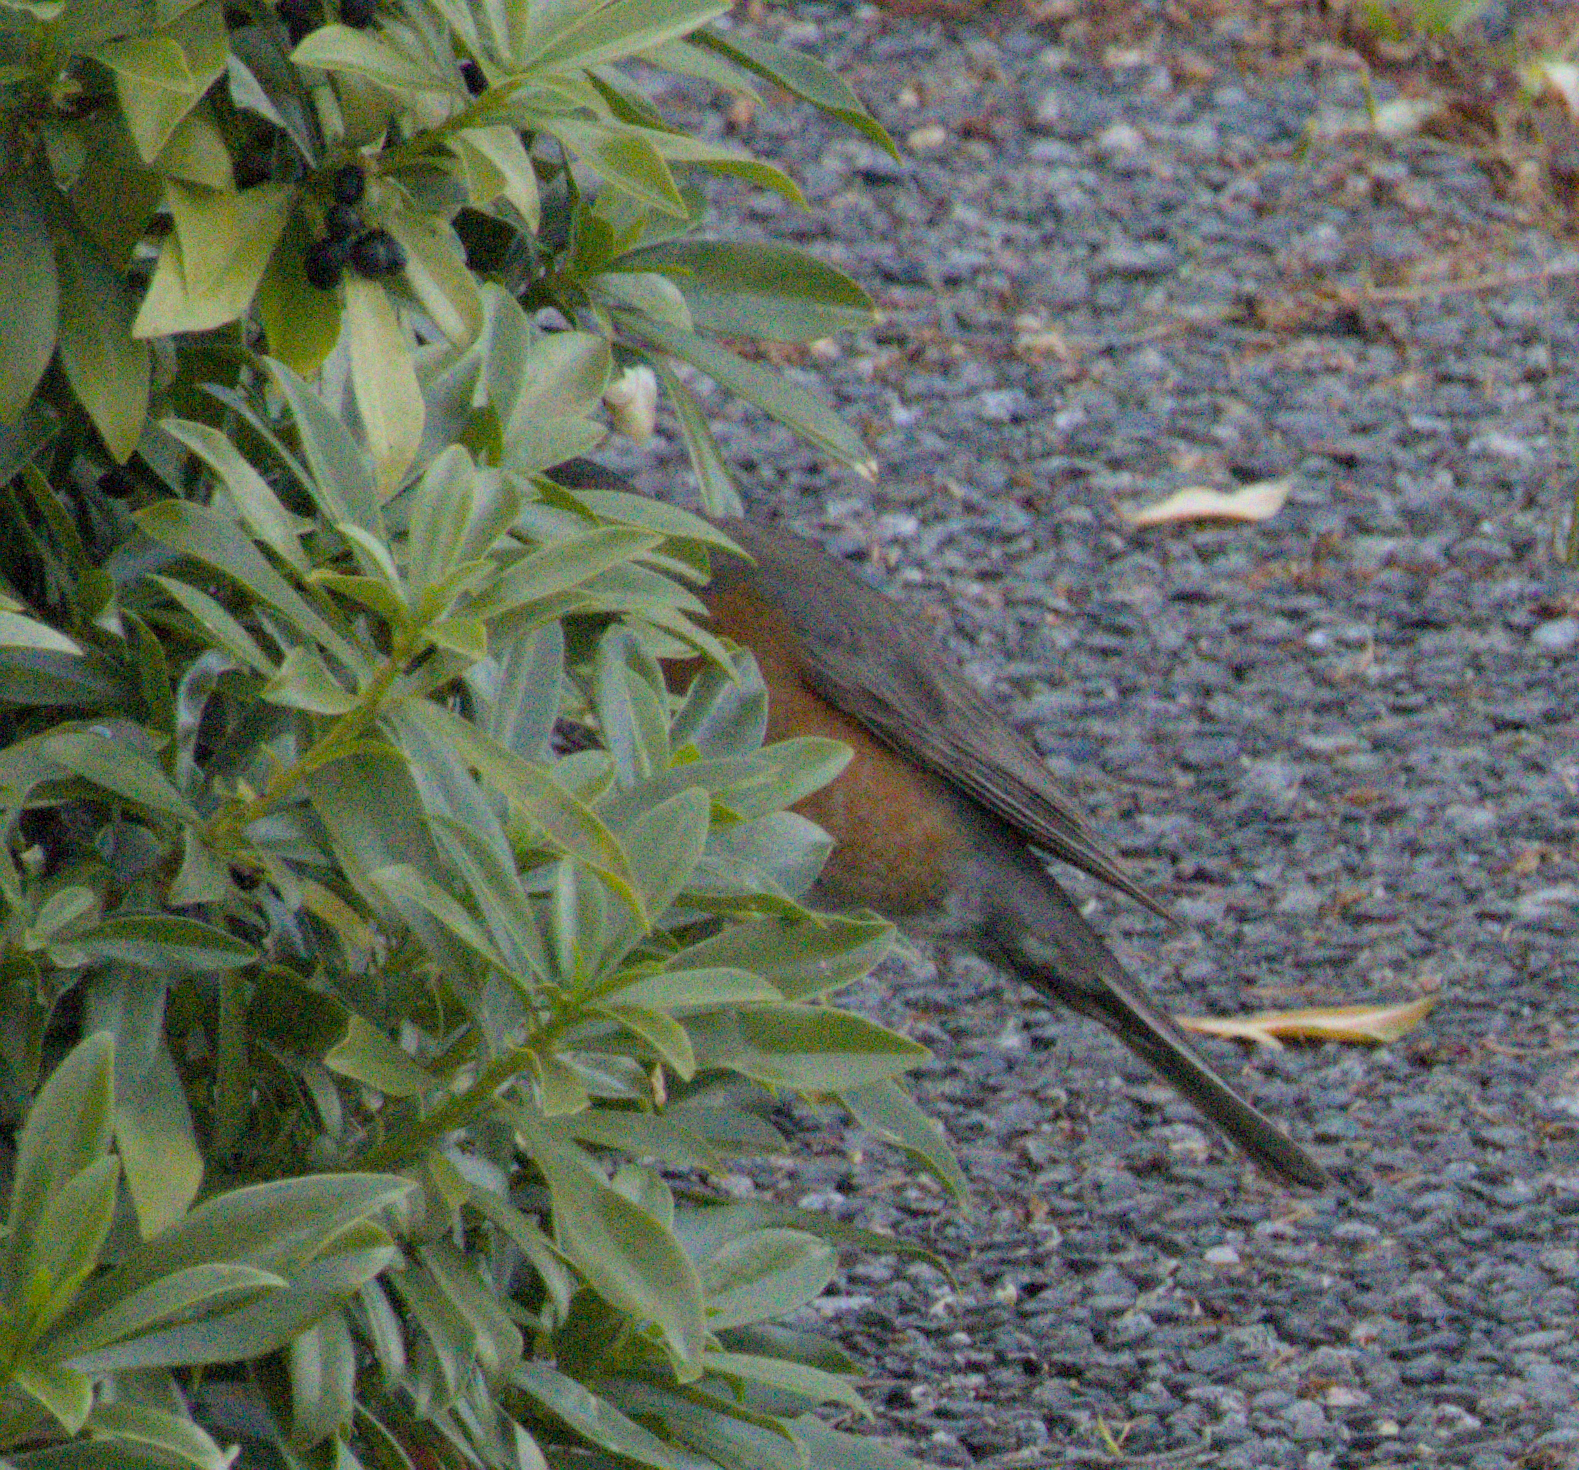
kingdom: Animalia
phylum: Chordata
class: Aves
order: Passeriformes
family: Turdidae
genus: Turdus
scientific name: Turdus migratorius
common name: American robin
